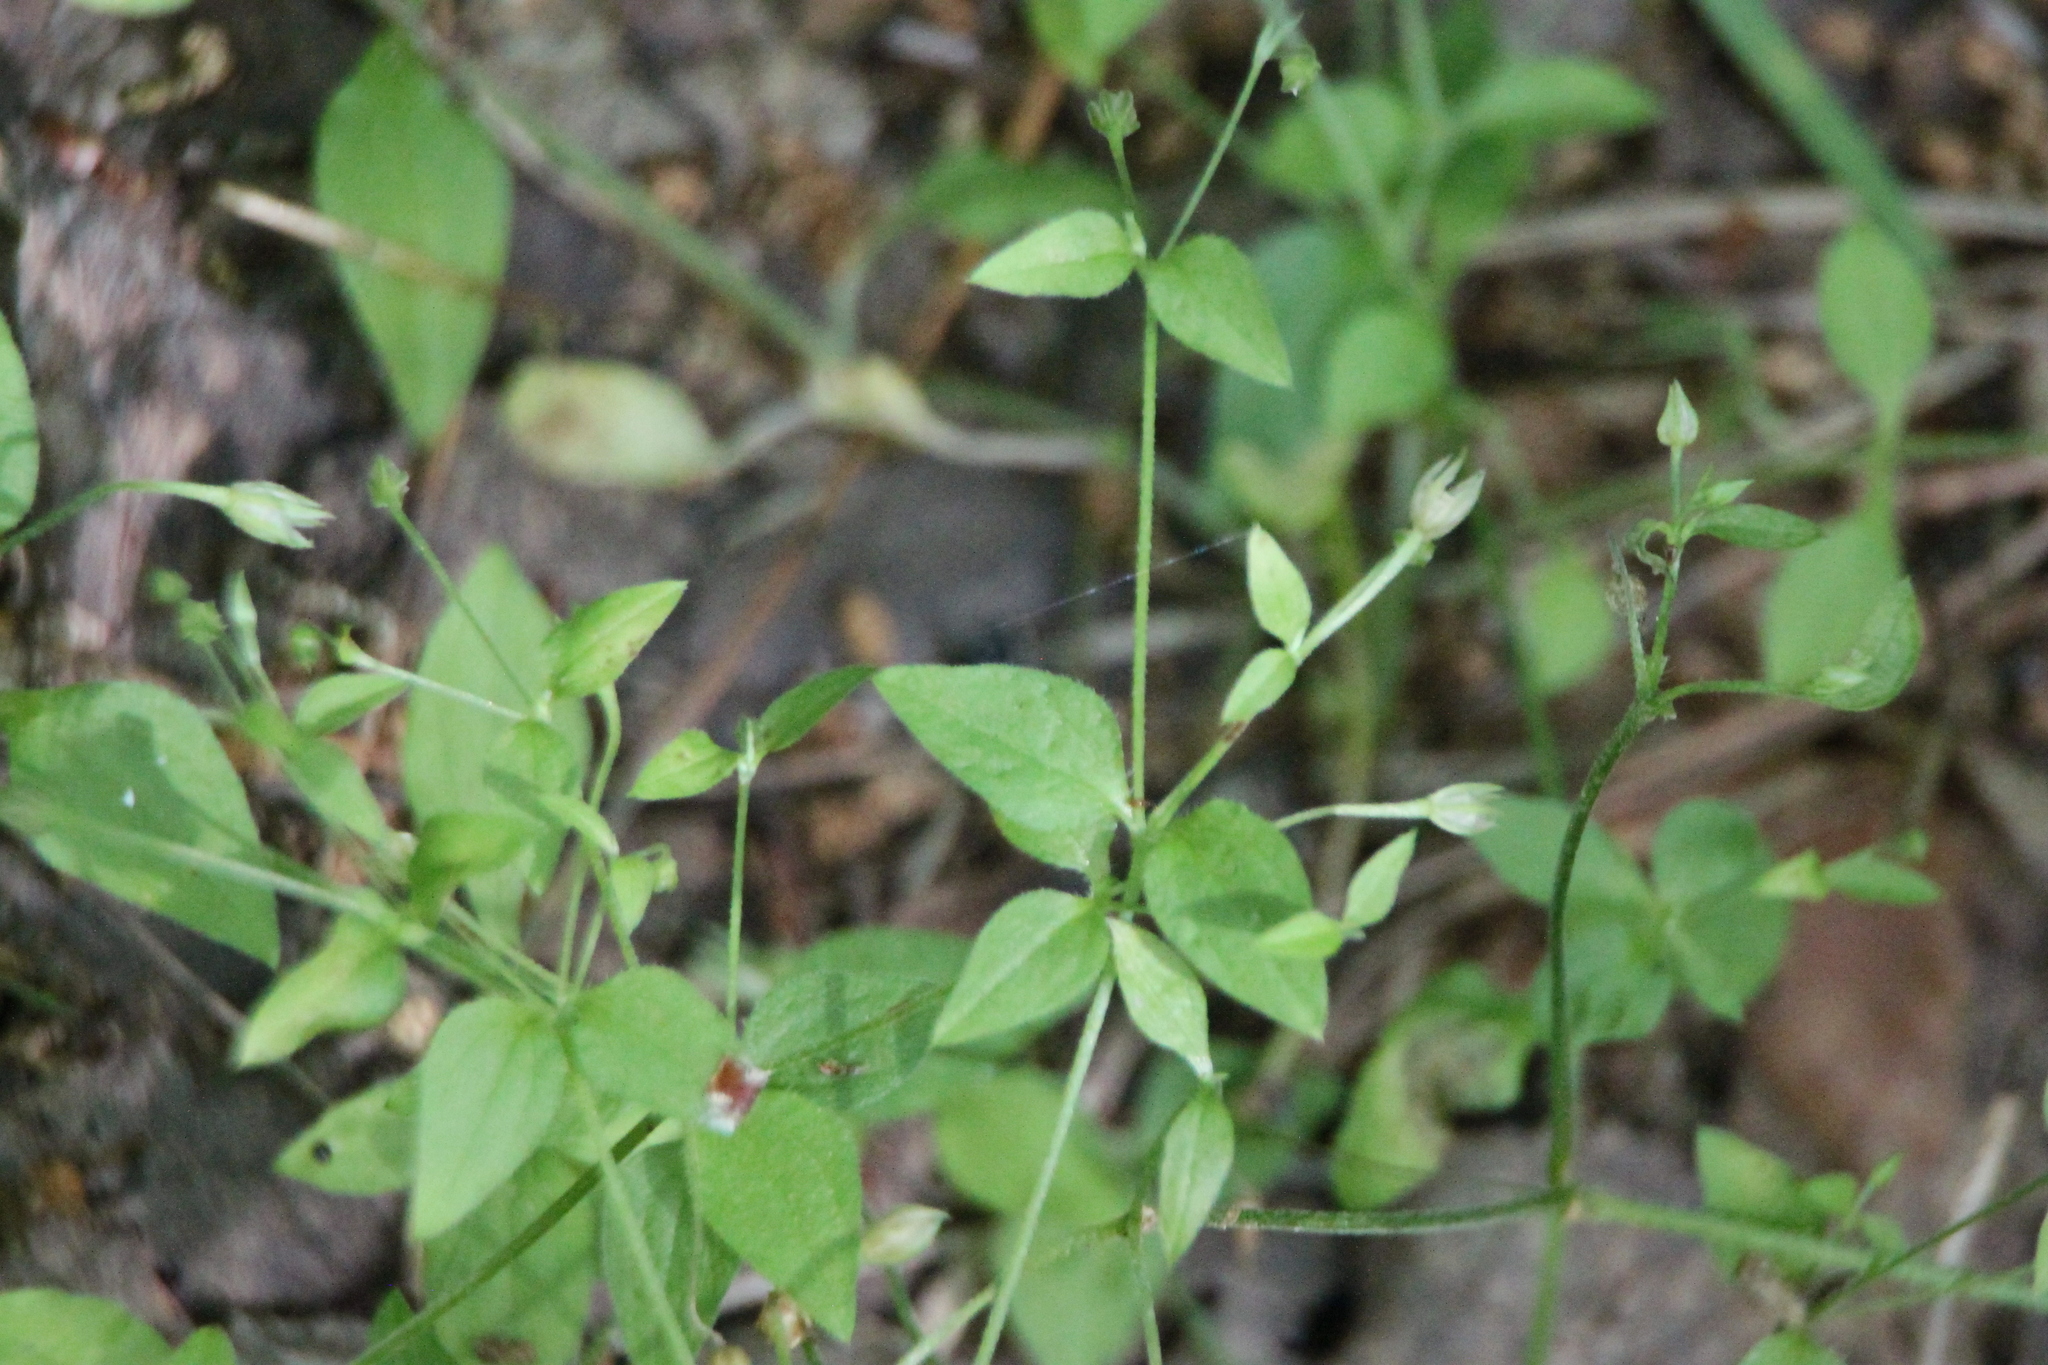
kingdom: Plantae
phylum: Tracheophyta
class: Magnoliopsida
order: Caryophyllales
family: Caryophyllaceae
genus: Moehringia
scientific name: Moehringia trinervia
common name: Three-nerved sandwort
